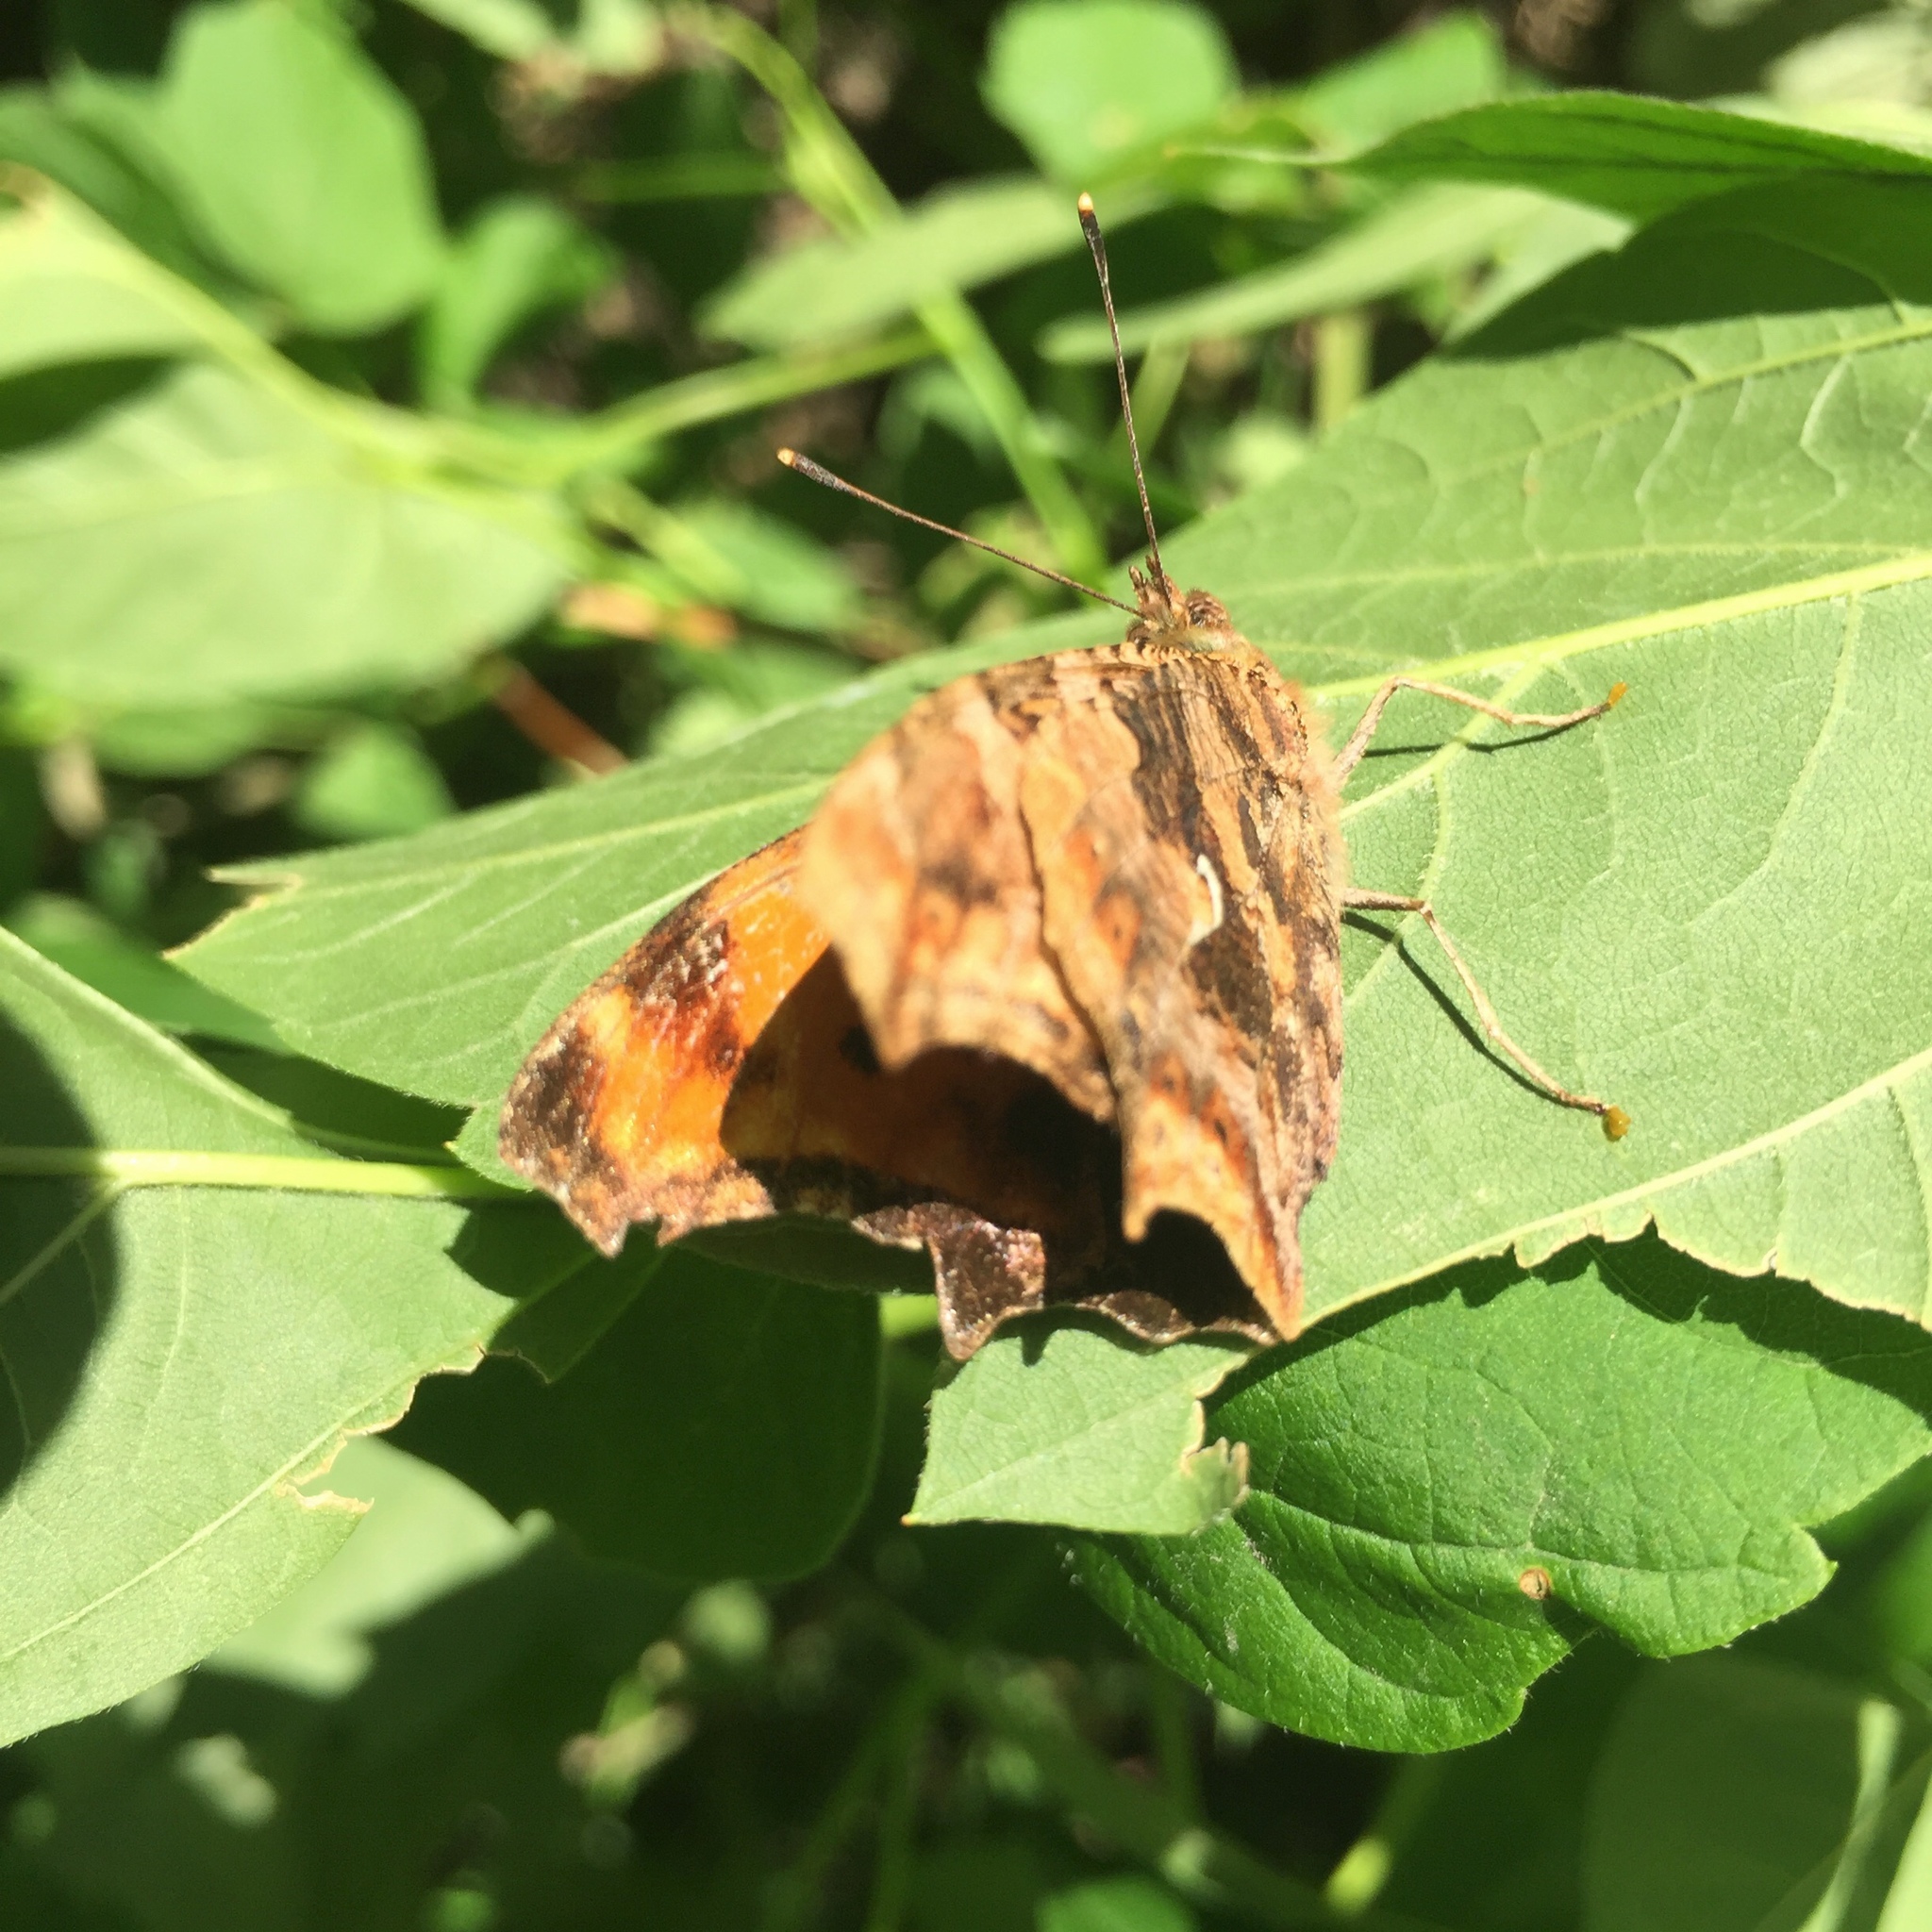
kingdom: Animalia
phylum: Arthropoda
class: Insecta
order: Lepidoptera
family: Nymphalidae
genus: Polygonia
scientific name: Polygonia comma
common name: Eastern comma
